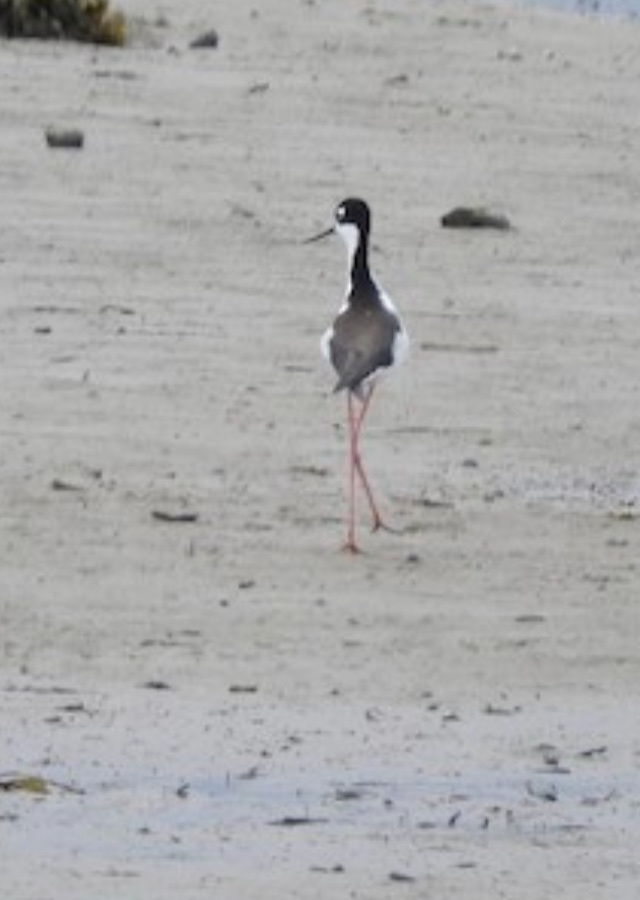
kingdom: Animalia
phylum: Chordata
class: Aves
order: Charadriiformes
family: Recurvirostridae
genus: Himantopus
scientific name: Himantopus mexicanus
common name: Black-necked stilt
